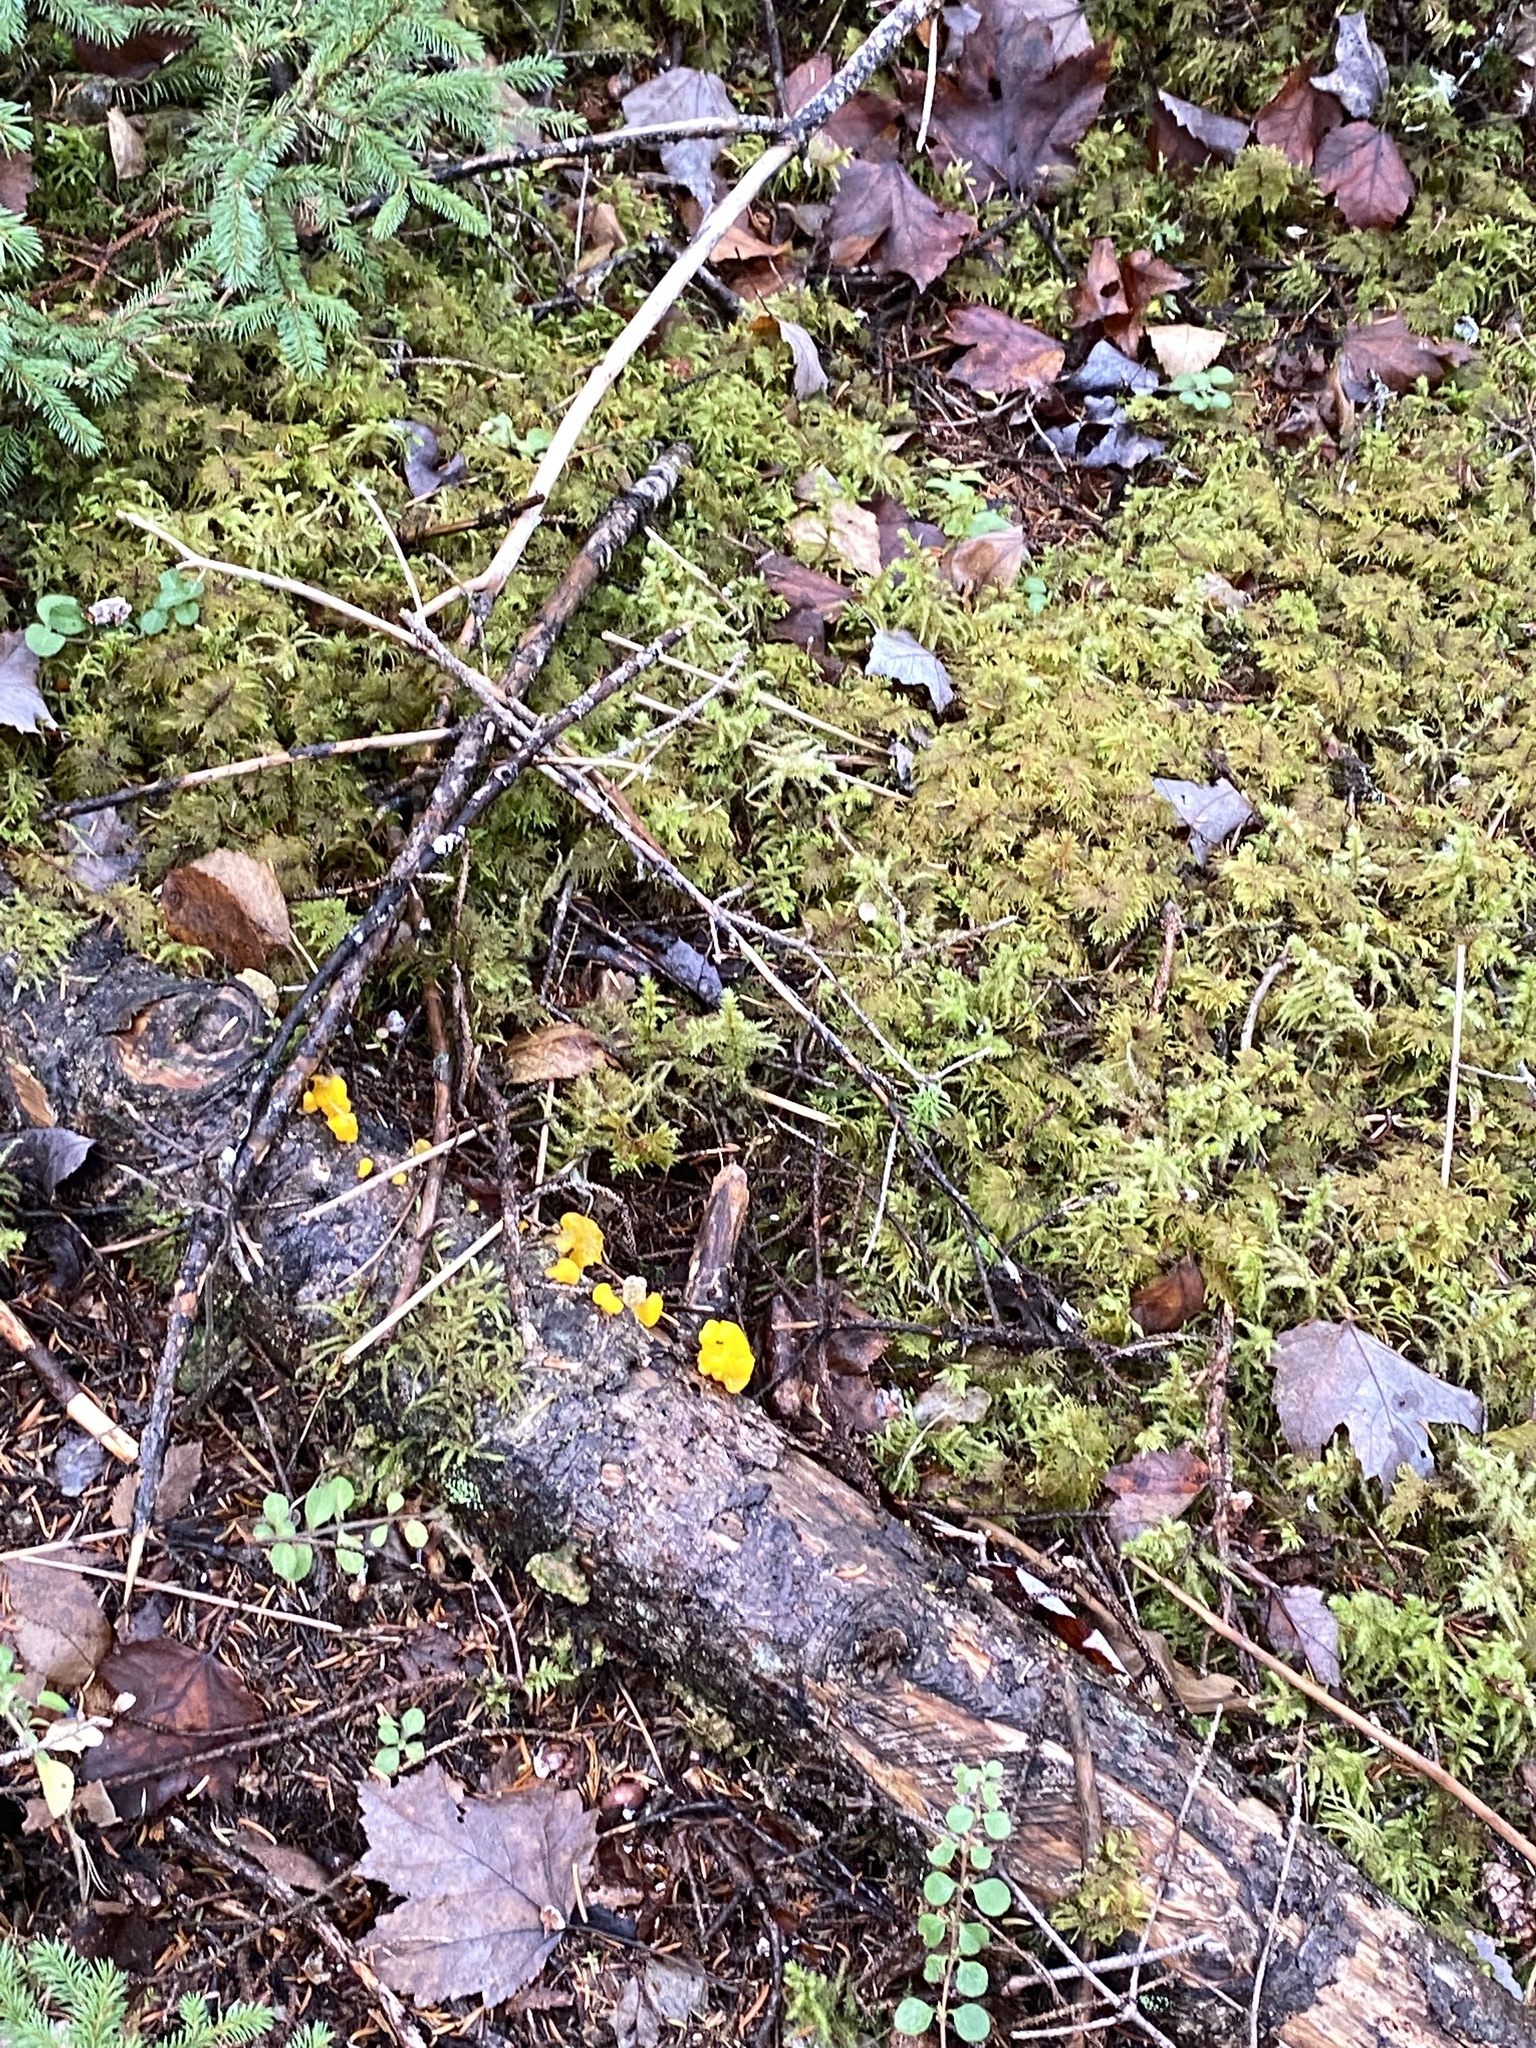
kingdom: Fungi
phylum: Basidiomycota
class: Dacrymycetes
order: Dacrymycetales
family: Dacrymycetaceae
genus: Dacrymyces
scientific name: Dacrymyces chrysospermus
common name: Orange jelly spot
